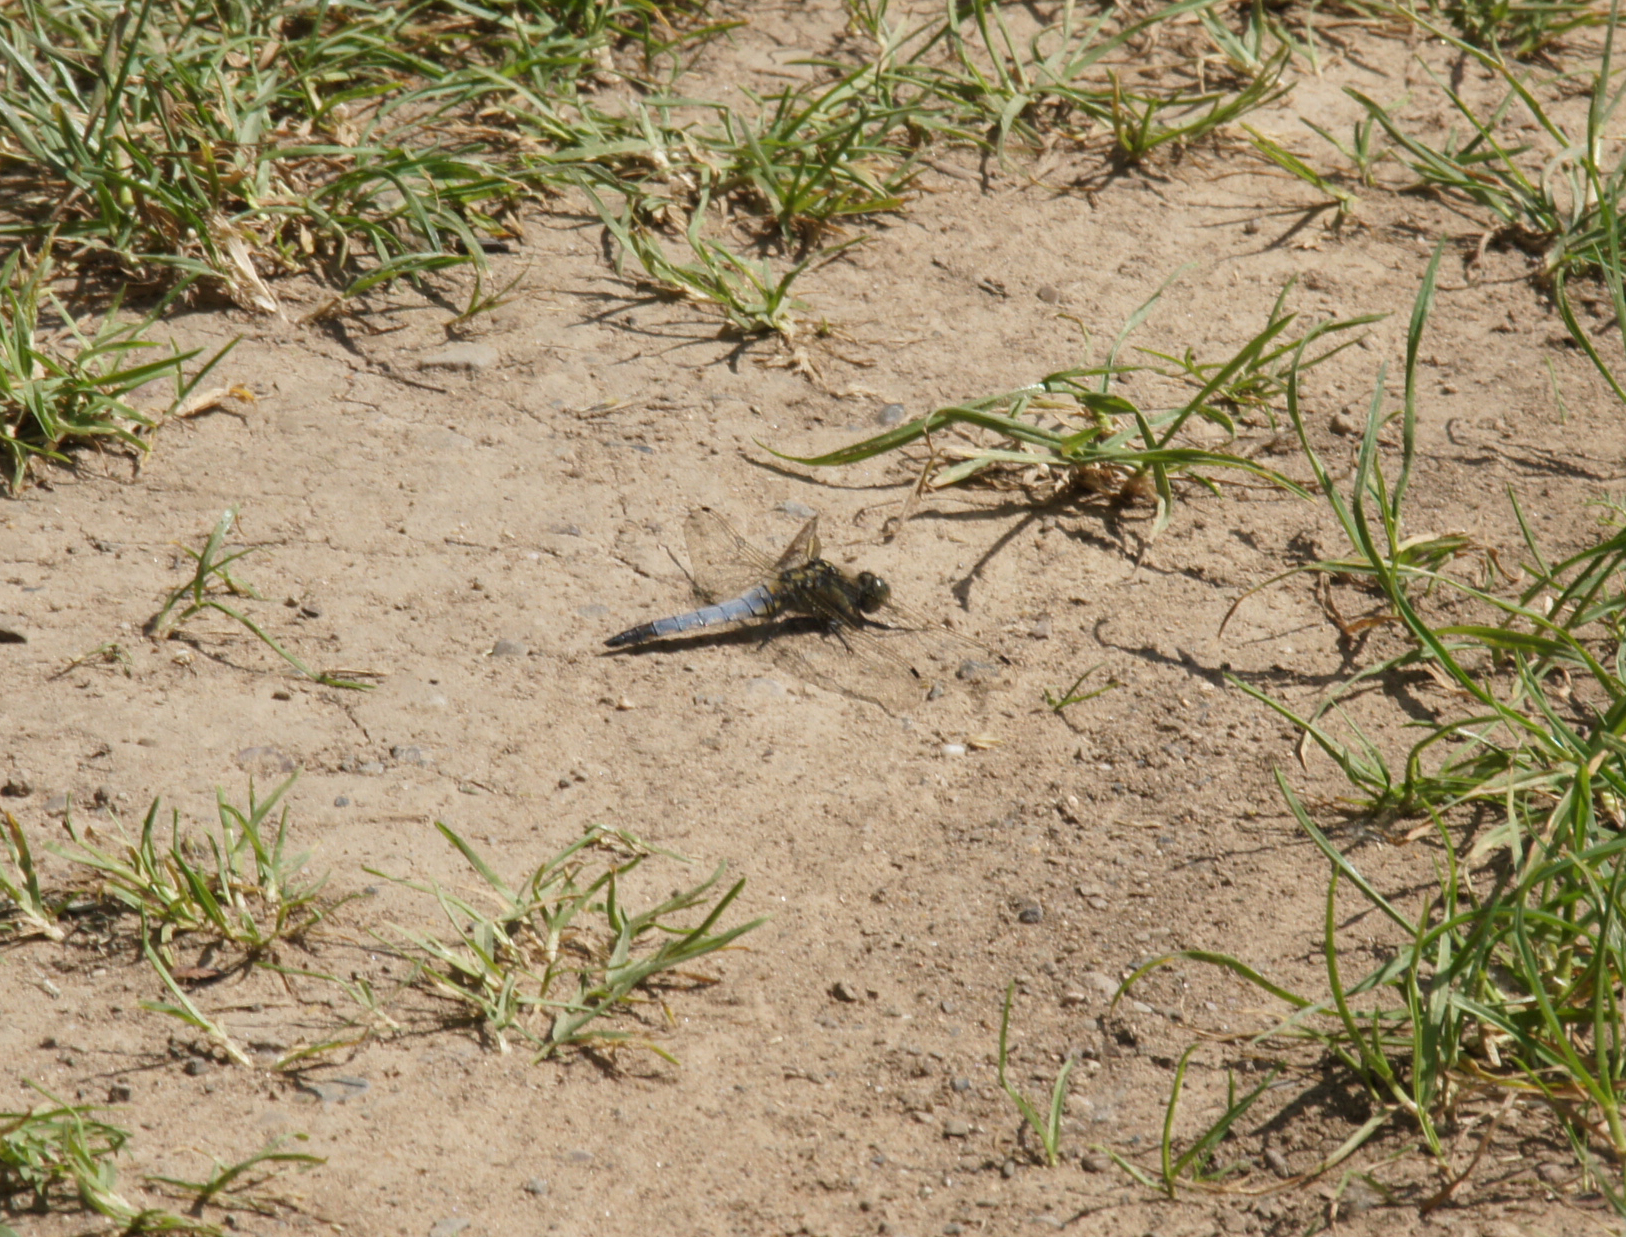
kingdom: Animalia
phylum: Arthropoda
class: Insecta
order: Odonata
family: Libellulidae
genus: Orthetrum
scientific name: Orthetrum cancellatum
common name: Black-tailed skimmer
